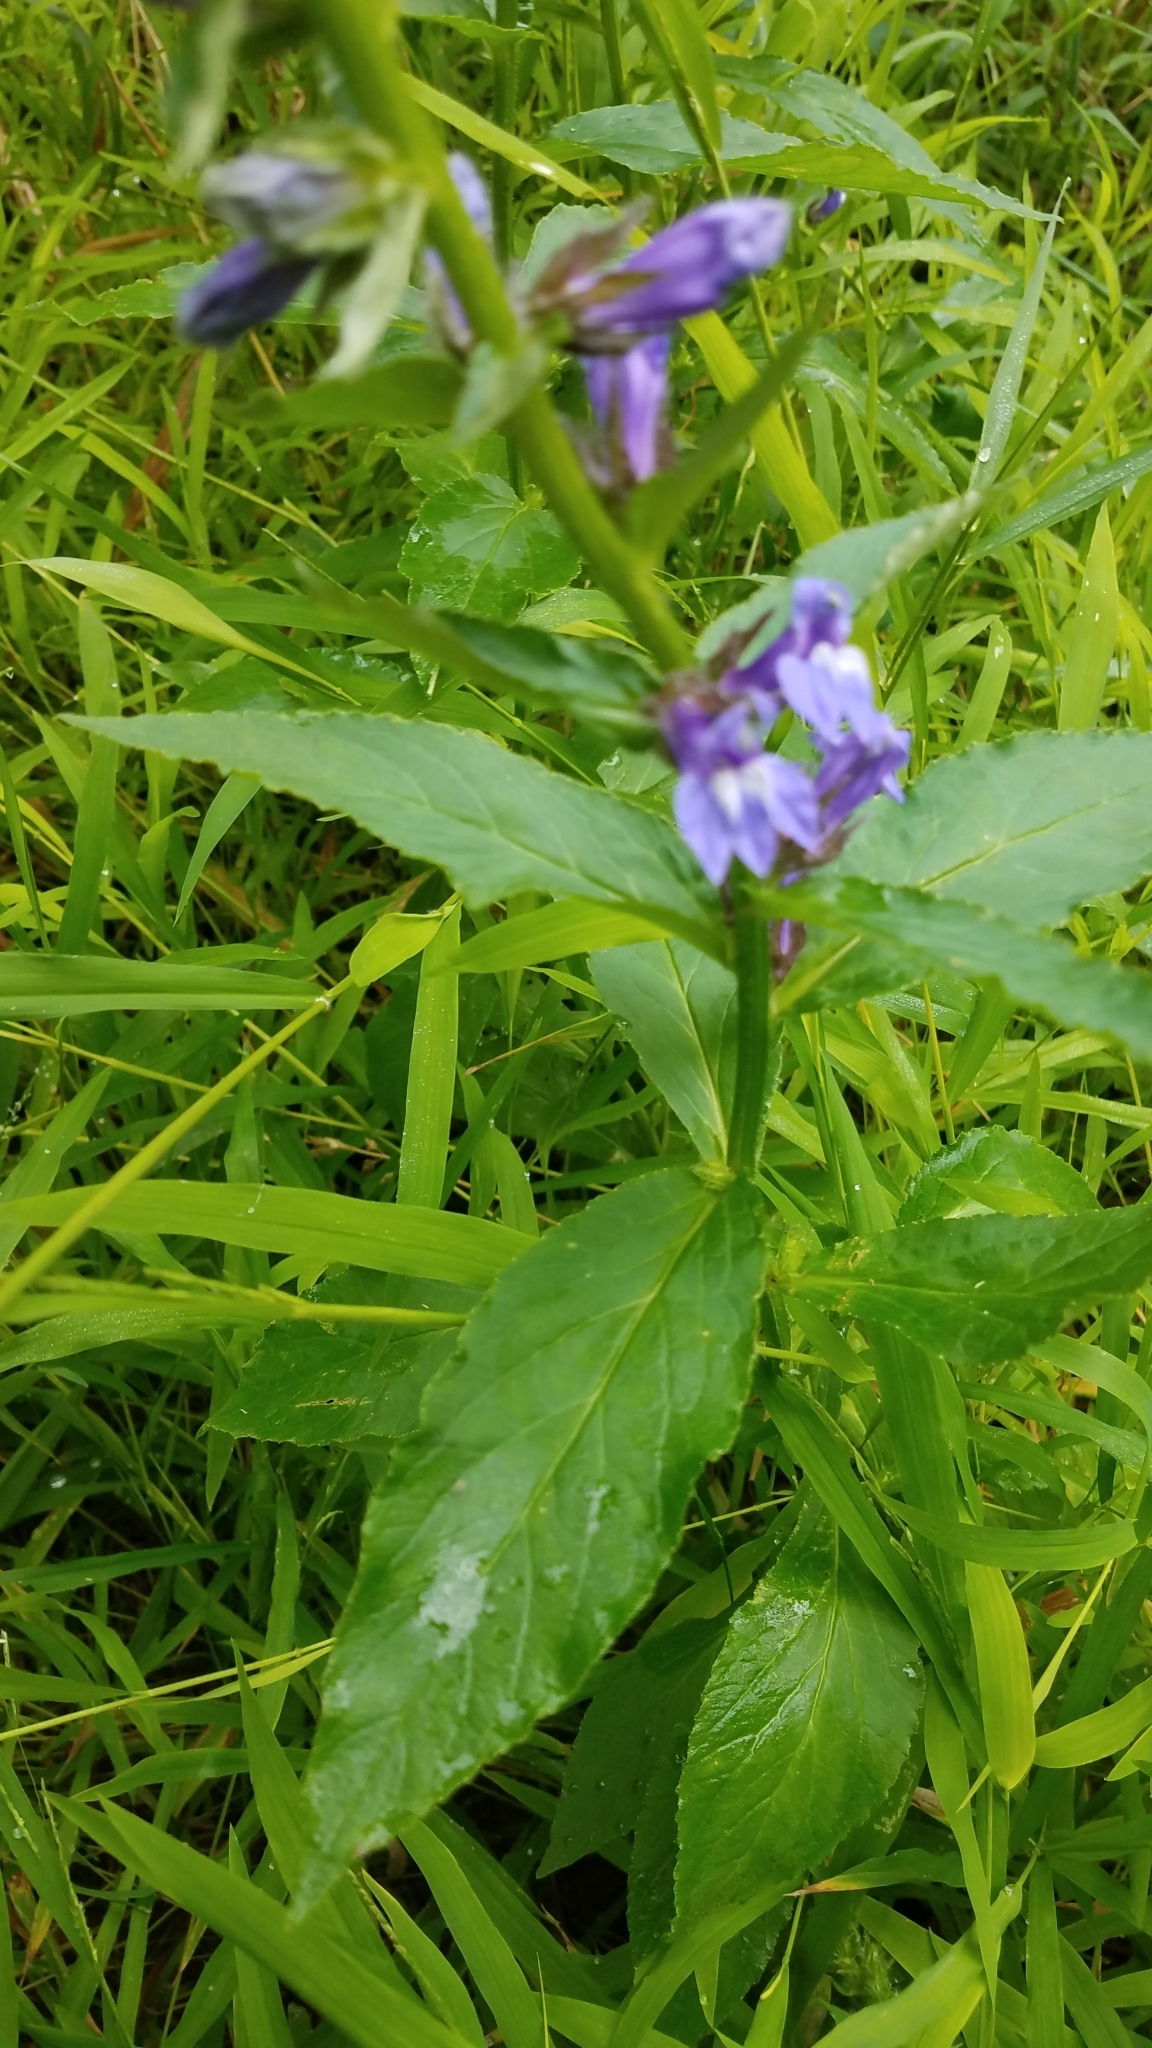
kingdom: Plantae
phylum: Tracheophyta
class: Magnoliopsida
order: Asterales
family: Campanulaceae
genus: Lobelia
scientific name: Lobelia siphilitica
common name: Great lobelia
